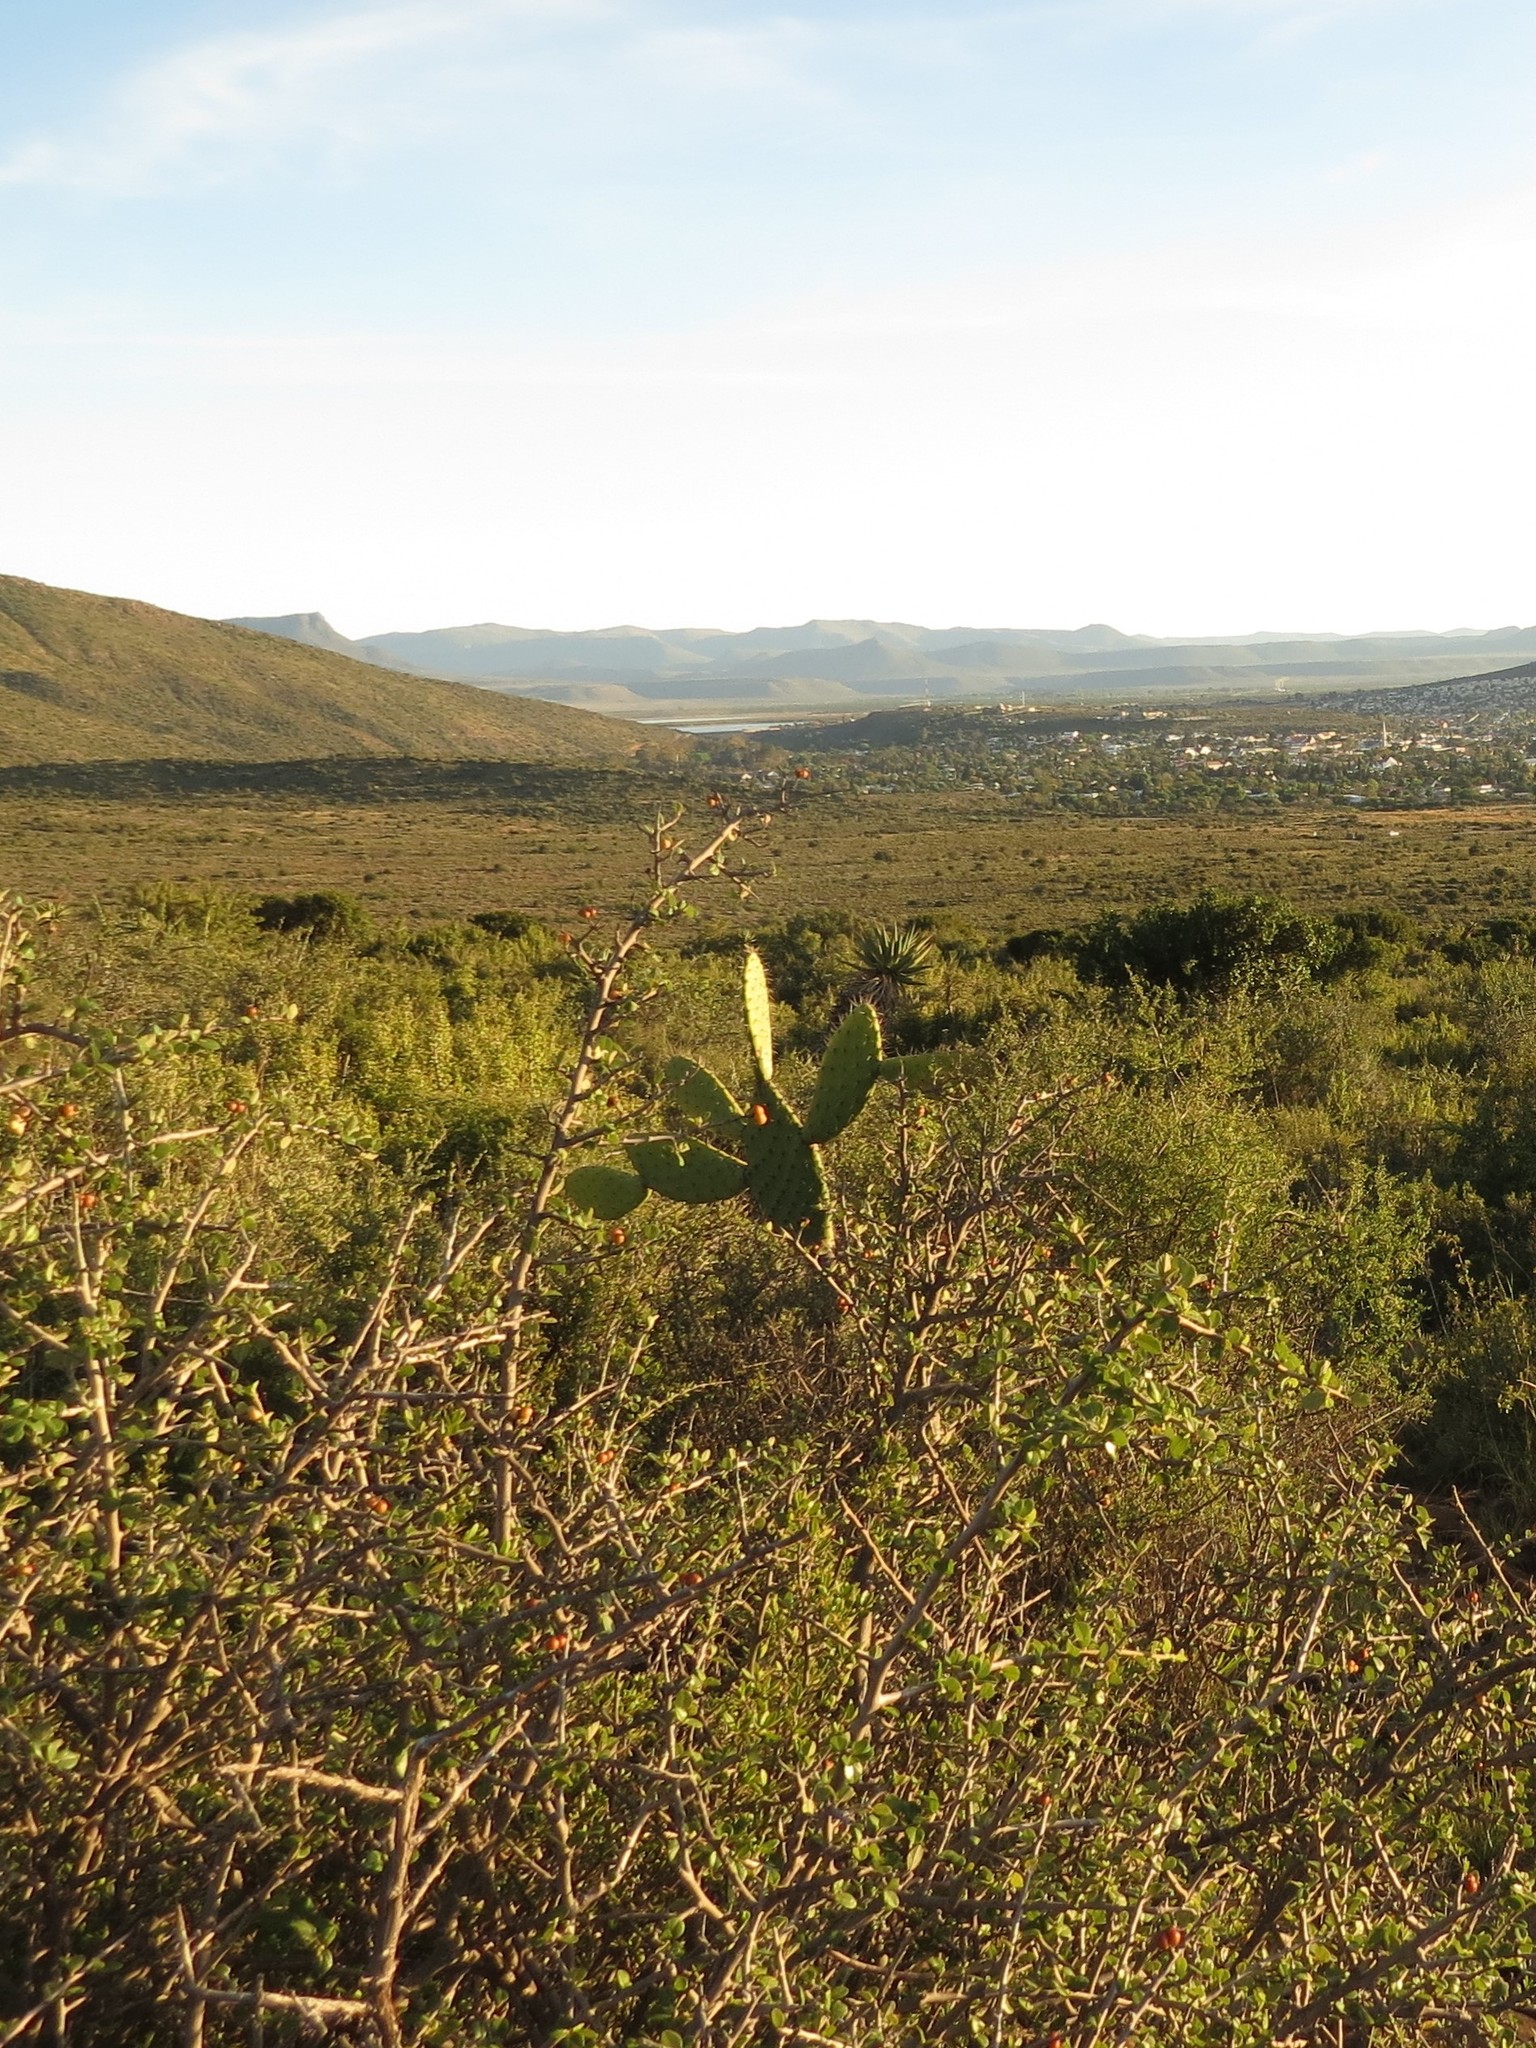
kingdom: Plantae
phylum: Tracheophyta
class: Magnoliopsida
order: Caryophyllales
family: Cactaceae
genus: Opuntia
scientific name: Opuntia ficus-indica
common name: Barbary fig
